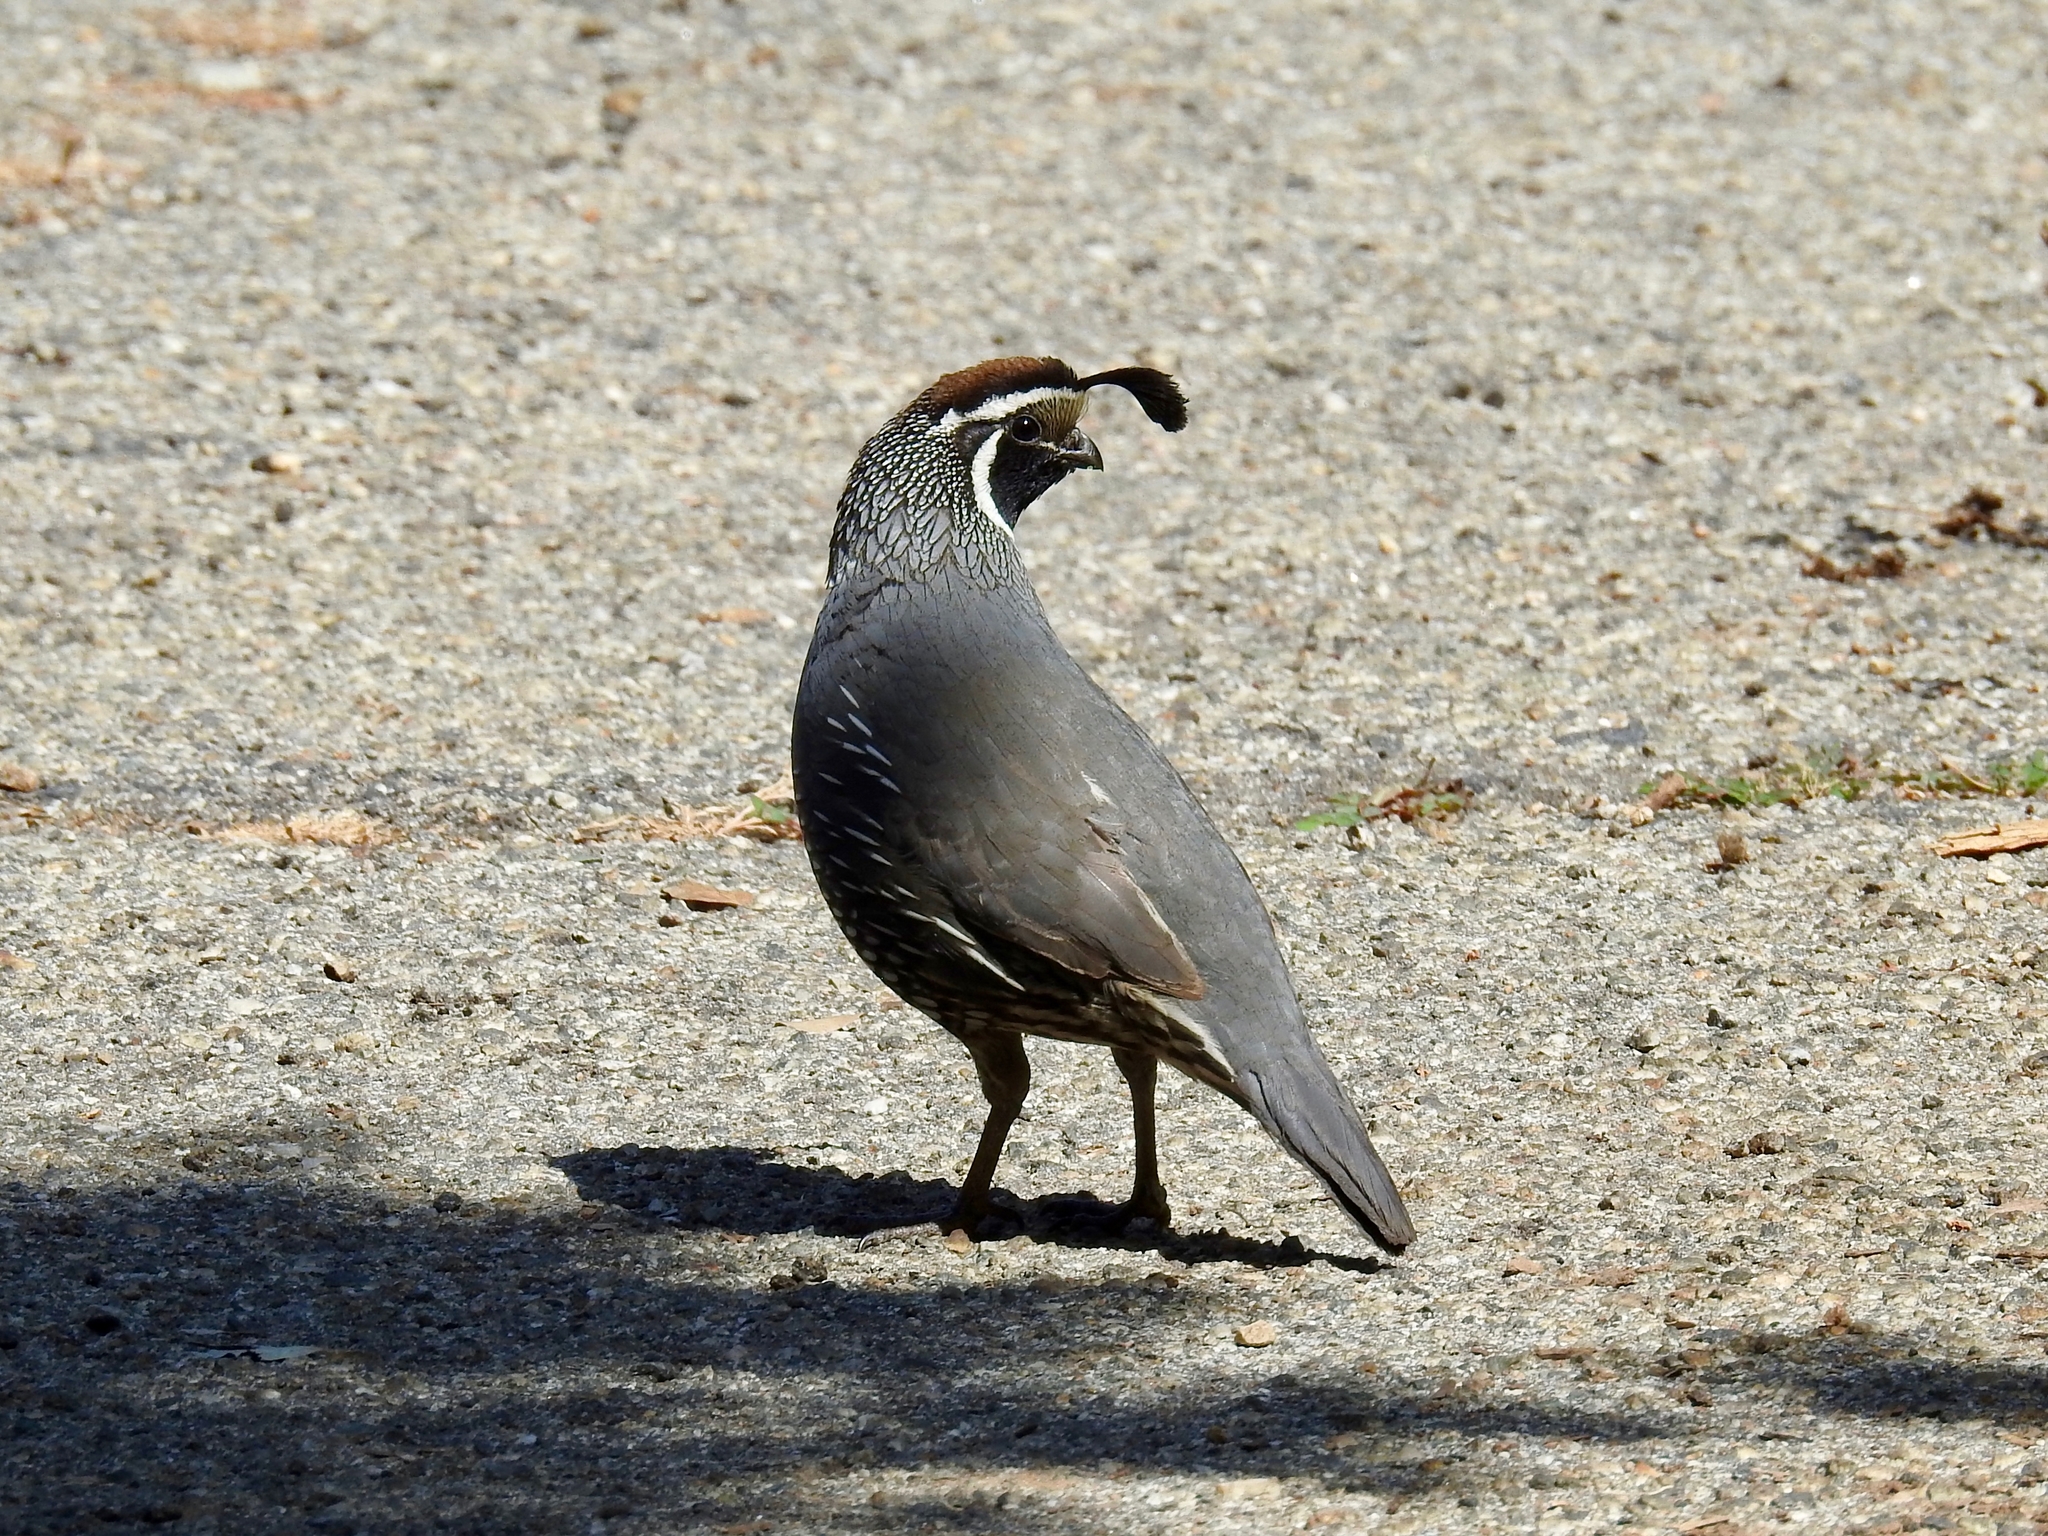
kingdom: Animalia
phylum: Chordata
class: Aves
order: Galliformes
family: Odontophoridae
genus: Callipepla
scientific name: Callipepla californica
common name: California quail
